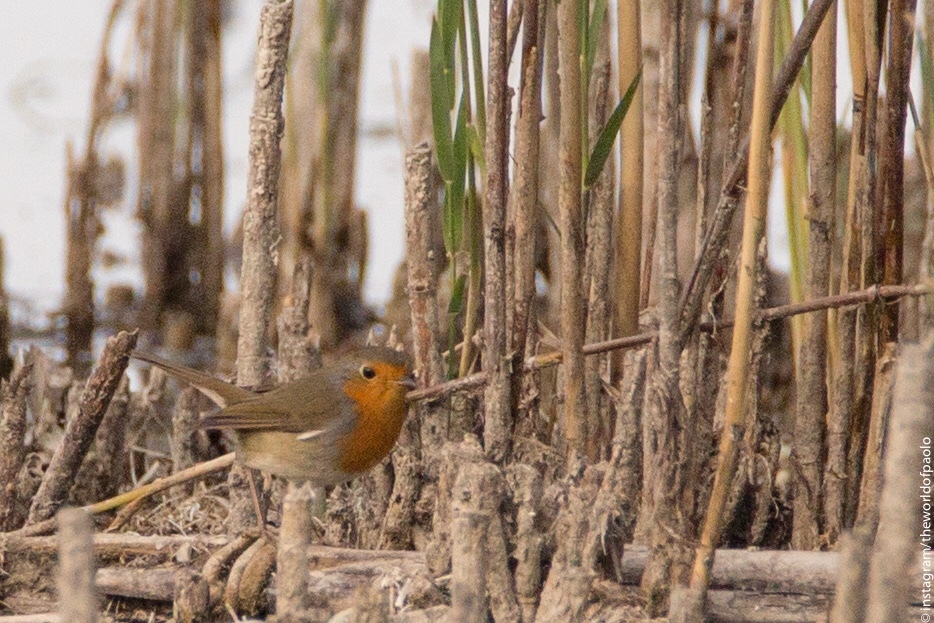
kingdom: Animalia
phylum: Chordata
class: Aves
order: Passeriformes
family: Muscicapidae
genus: Erithacus
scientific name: Erithacus rubecula
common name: European robin
